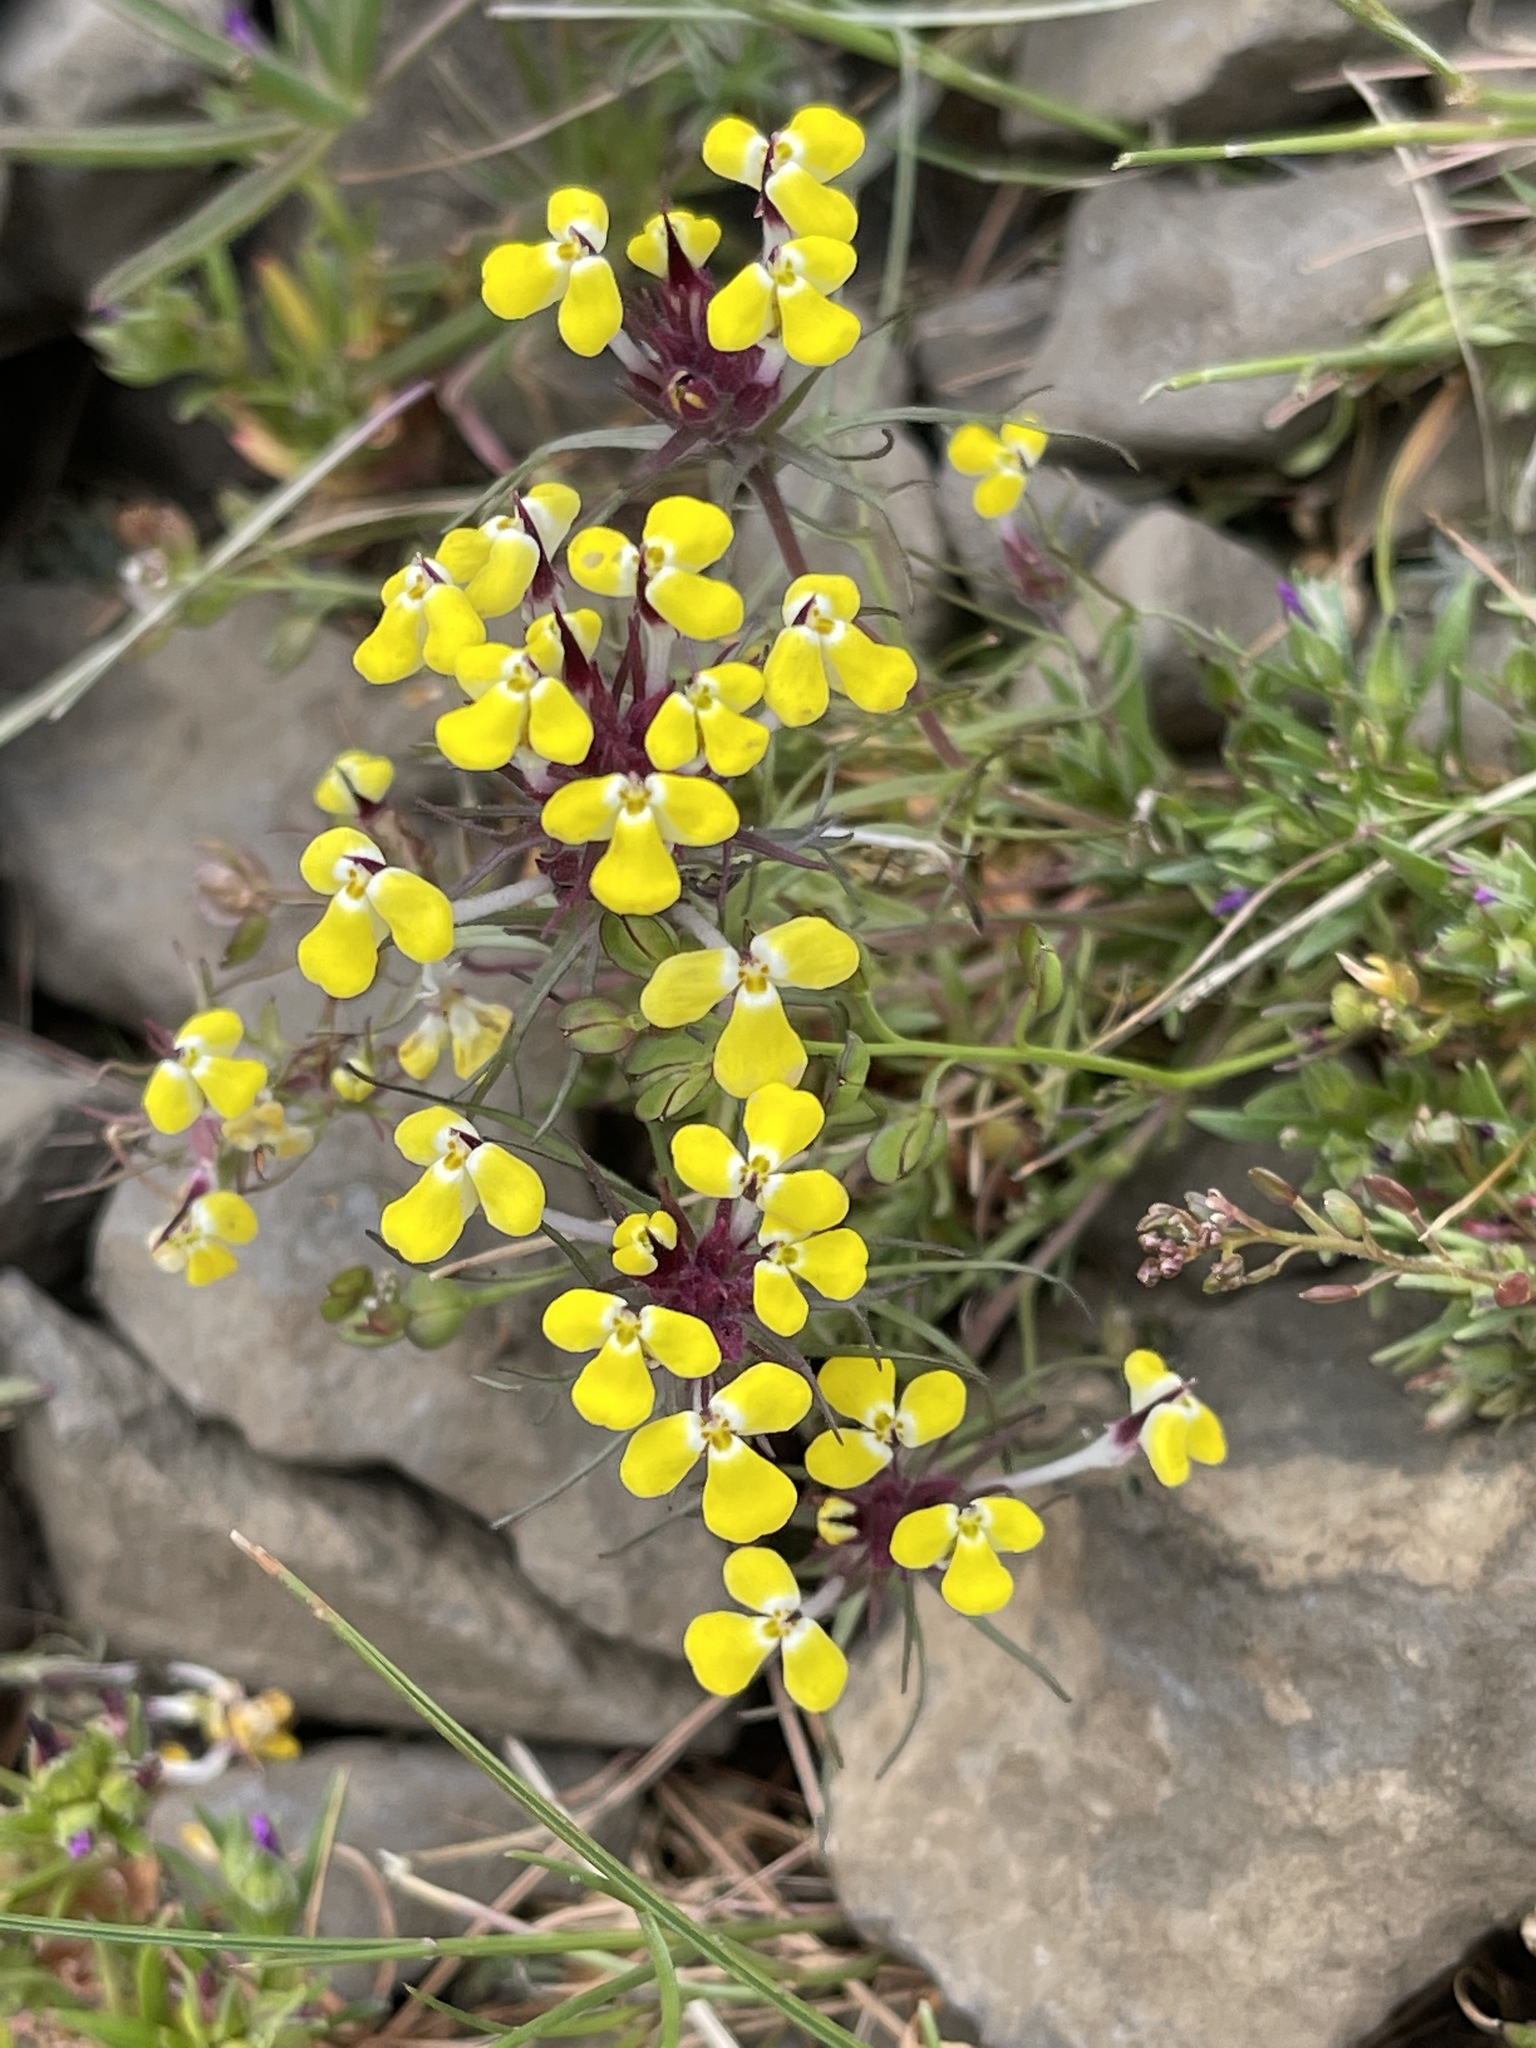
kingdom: Plantae
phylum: Tracheophyta
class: Magnoliopsida
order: Lamiales
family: Orobanchaceae
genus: Triphysaria
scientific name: Triphysaria eriantha
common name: Johnny-tuck
